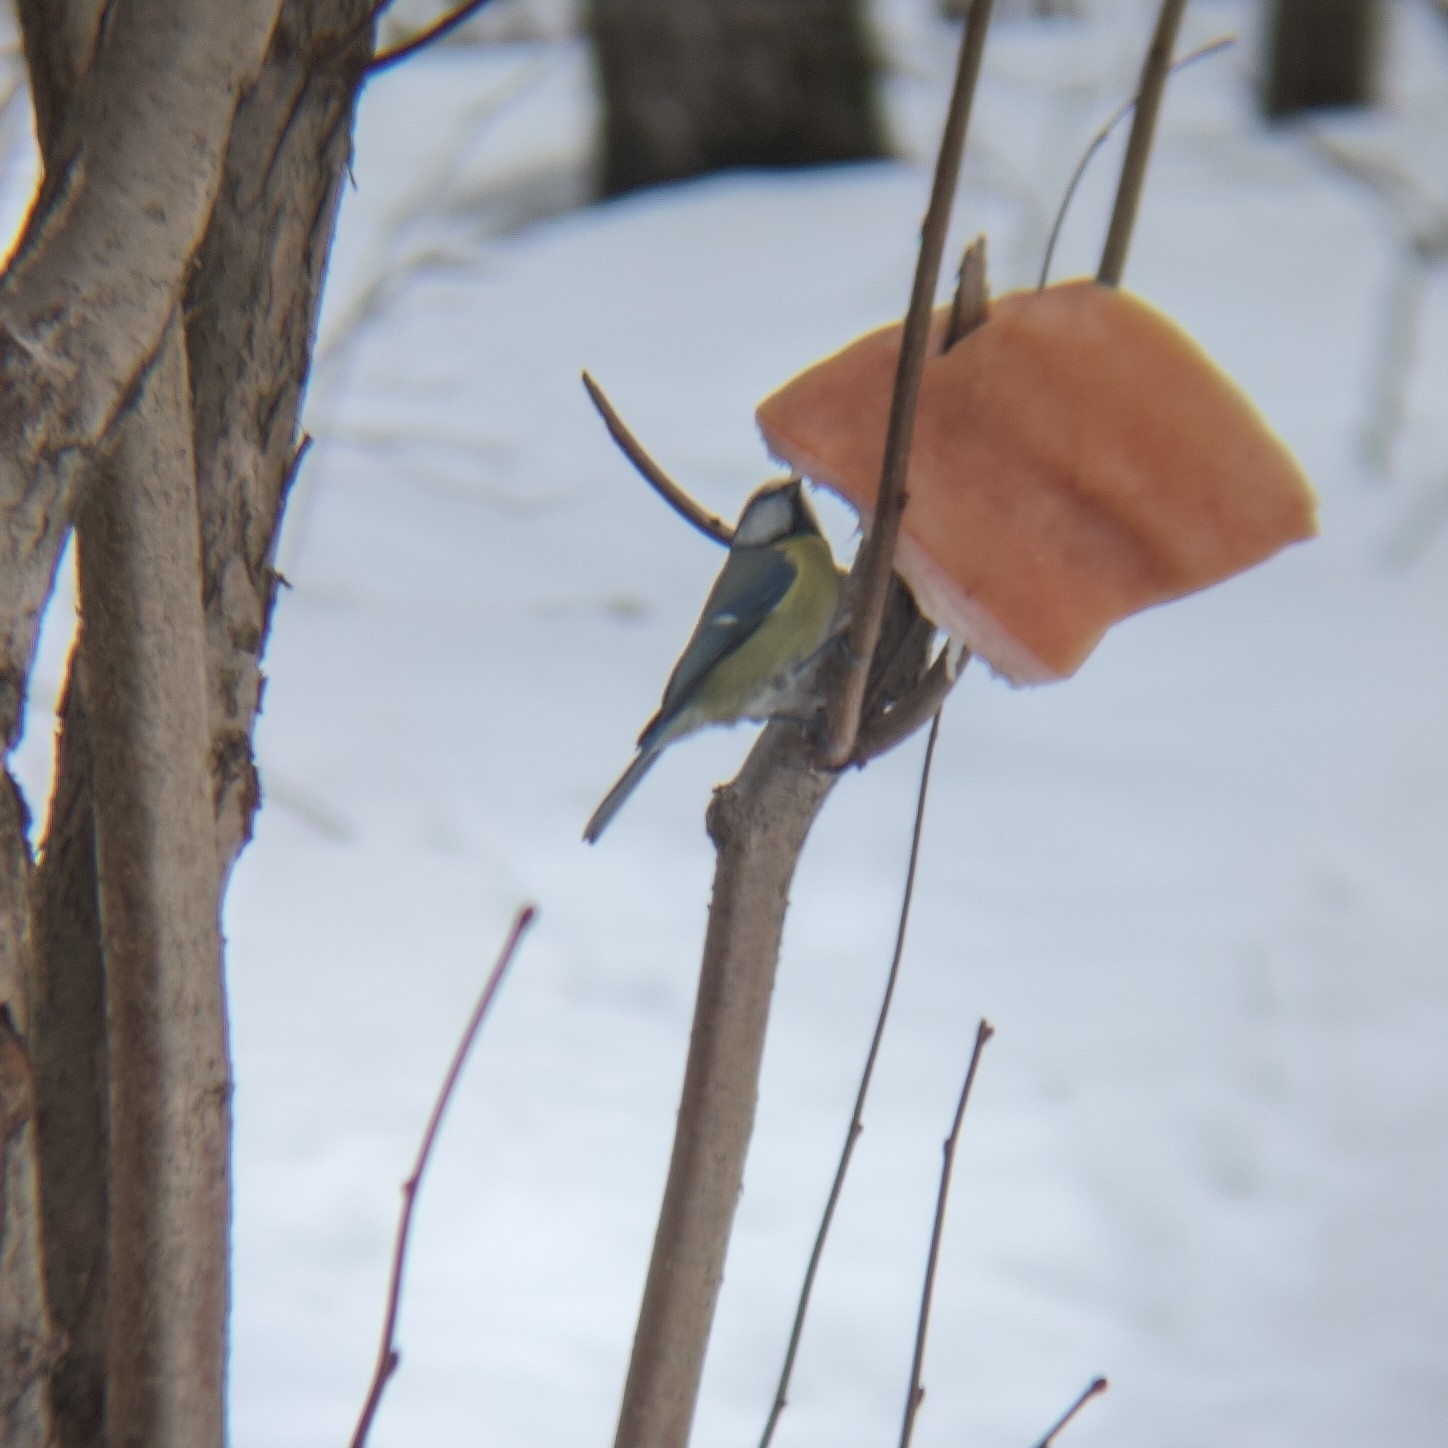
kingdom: Animalia
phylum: Chordata
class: Aves
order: Passeriformes
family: Paridae
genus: Cyanistes
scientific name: Cyanistes caeruleus
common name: Eurasian blue tit
